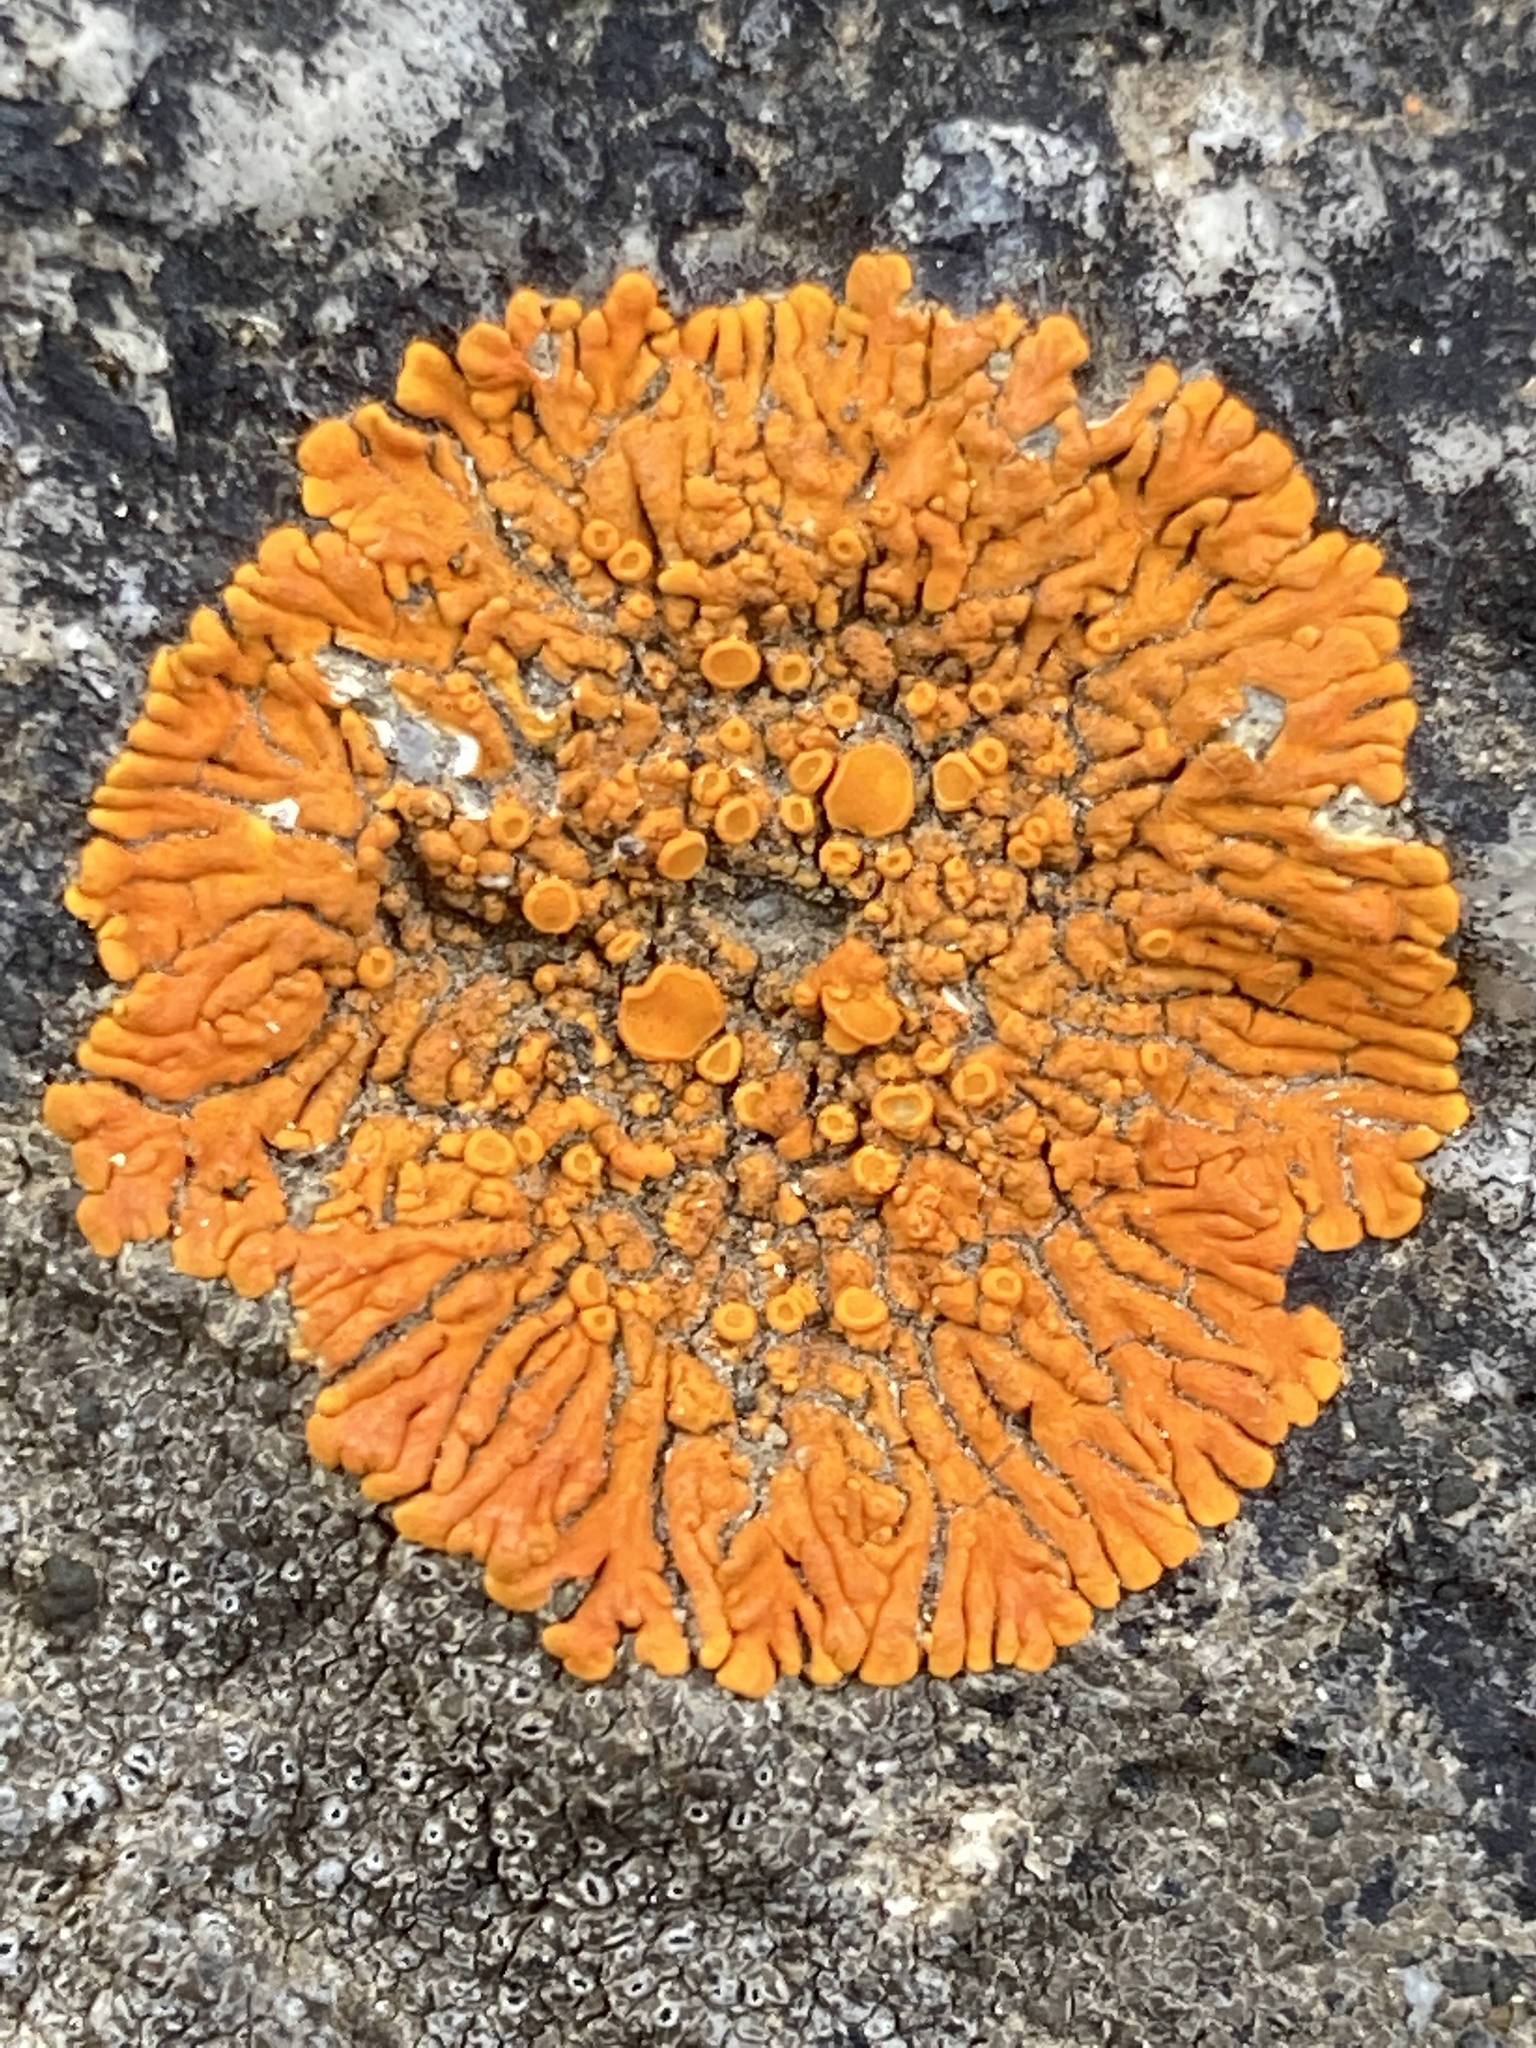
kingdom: Fungi
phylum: Ascomycota
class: Lecanoromycetes
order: Teloschistales
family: Teloschistaceae
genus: Xanthoria
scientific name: Xanthoria elegans
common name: Elegant sunburst lichen
